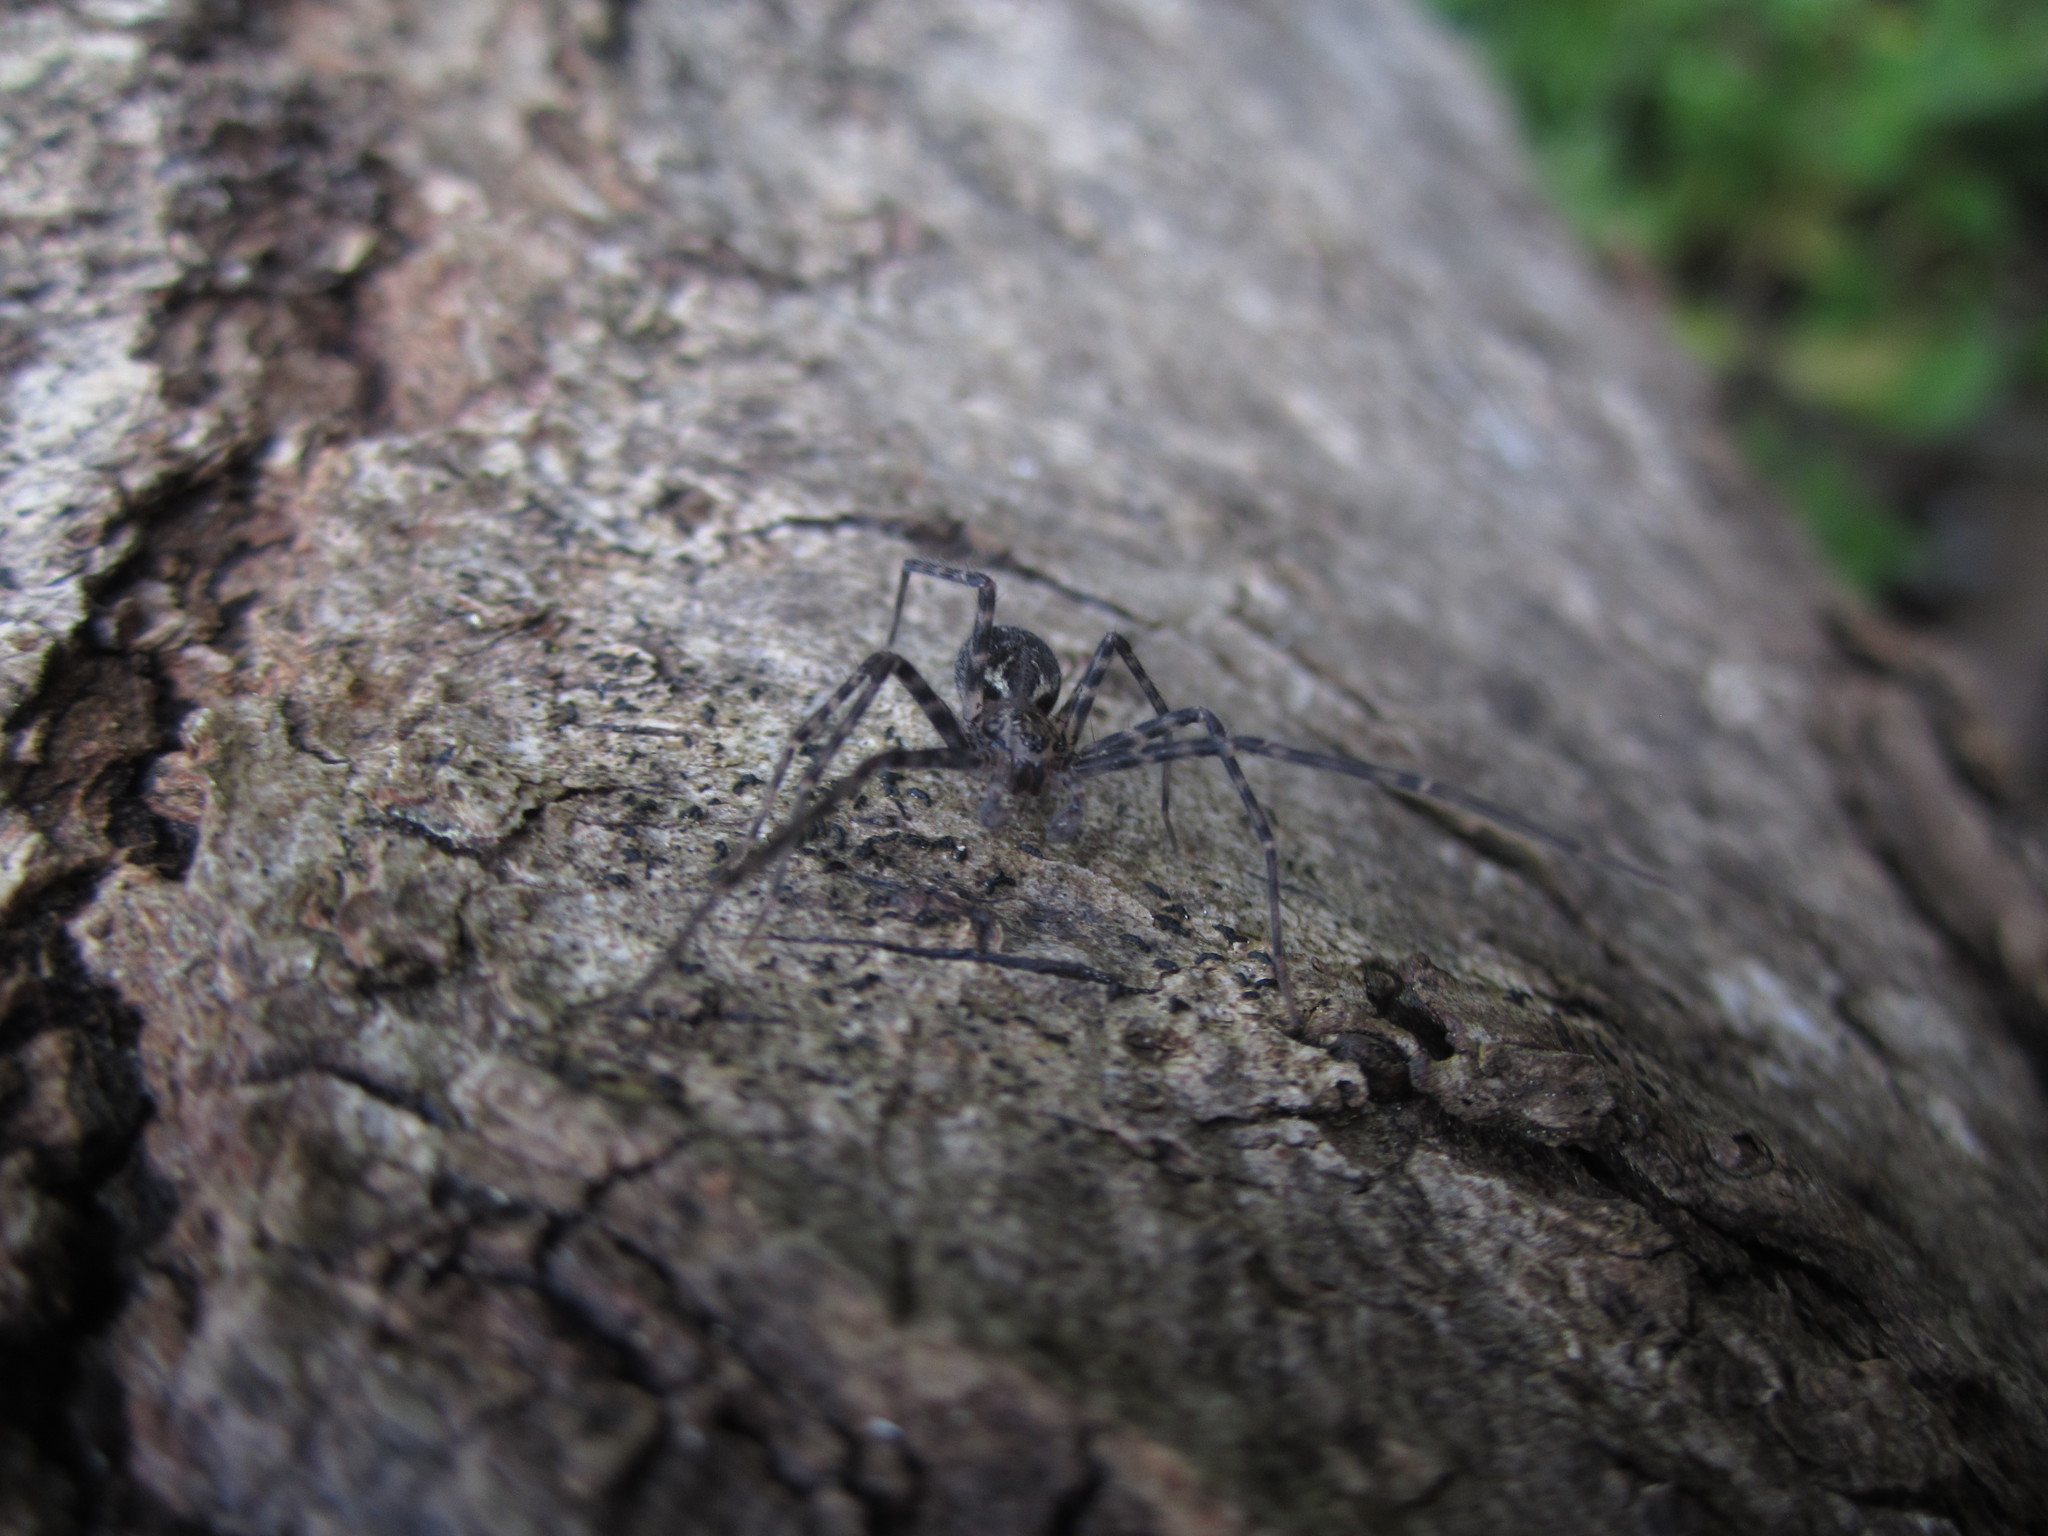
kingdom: Animalia
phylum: Arthropoda
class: Arachnida
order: Araneae
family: Stiphidiidae
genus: Stiphidion
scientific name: Stiphidion facetum
